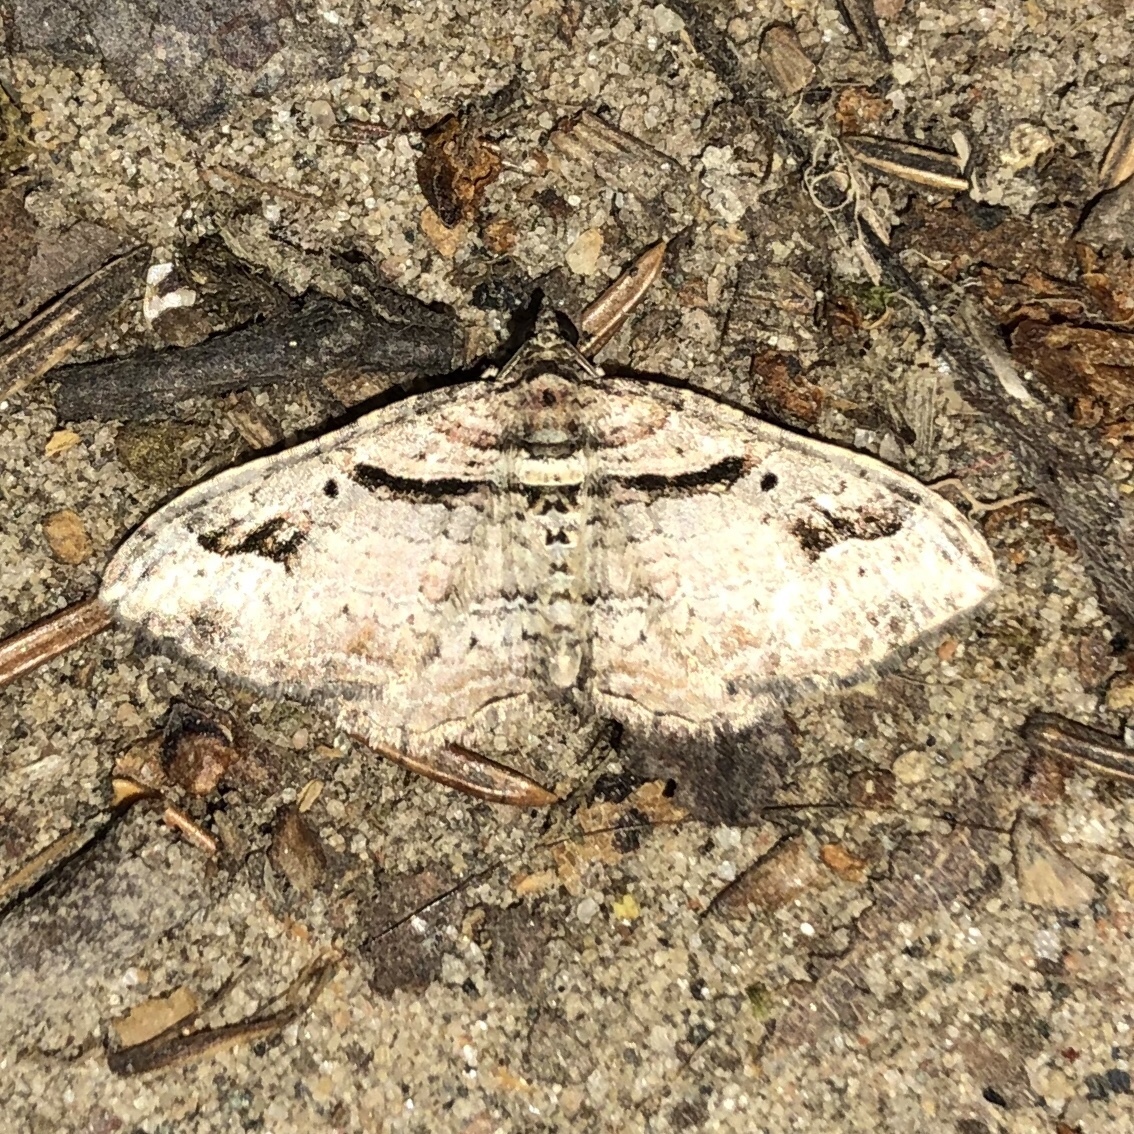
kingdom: Animalia
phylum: Arthropoda
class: Insecta
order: Lepidoptera
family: Geometridae
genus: Costaconvexa
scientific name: Costaconvexa centrostrigaria
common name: Bent-line carpet
